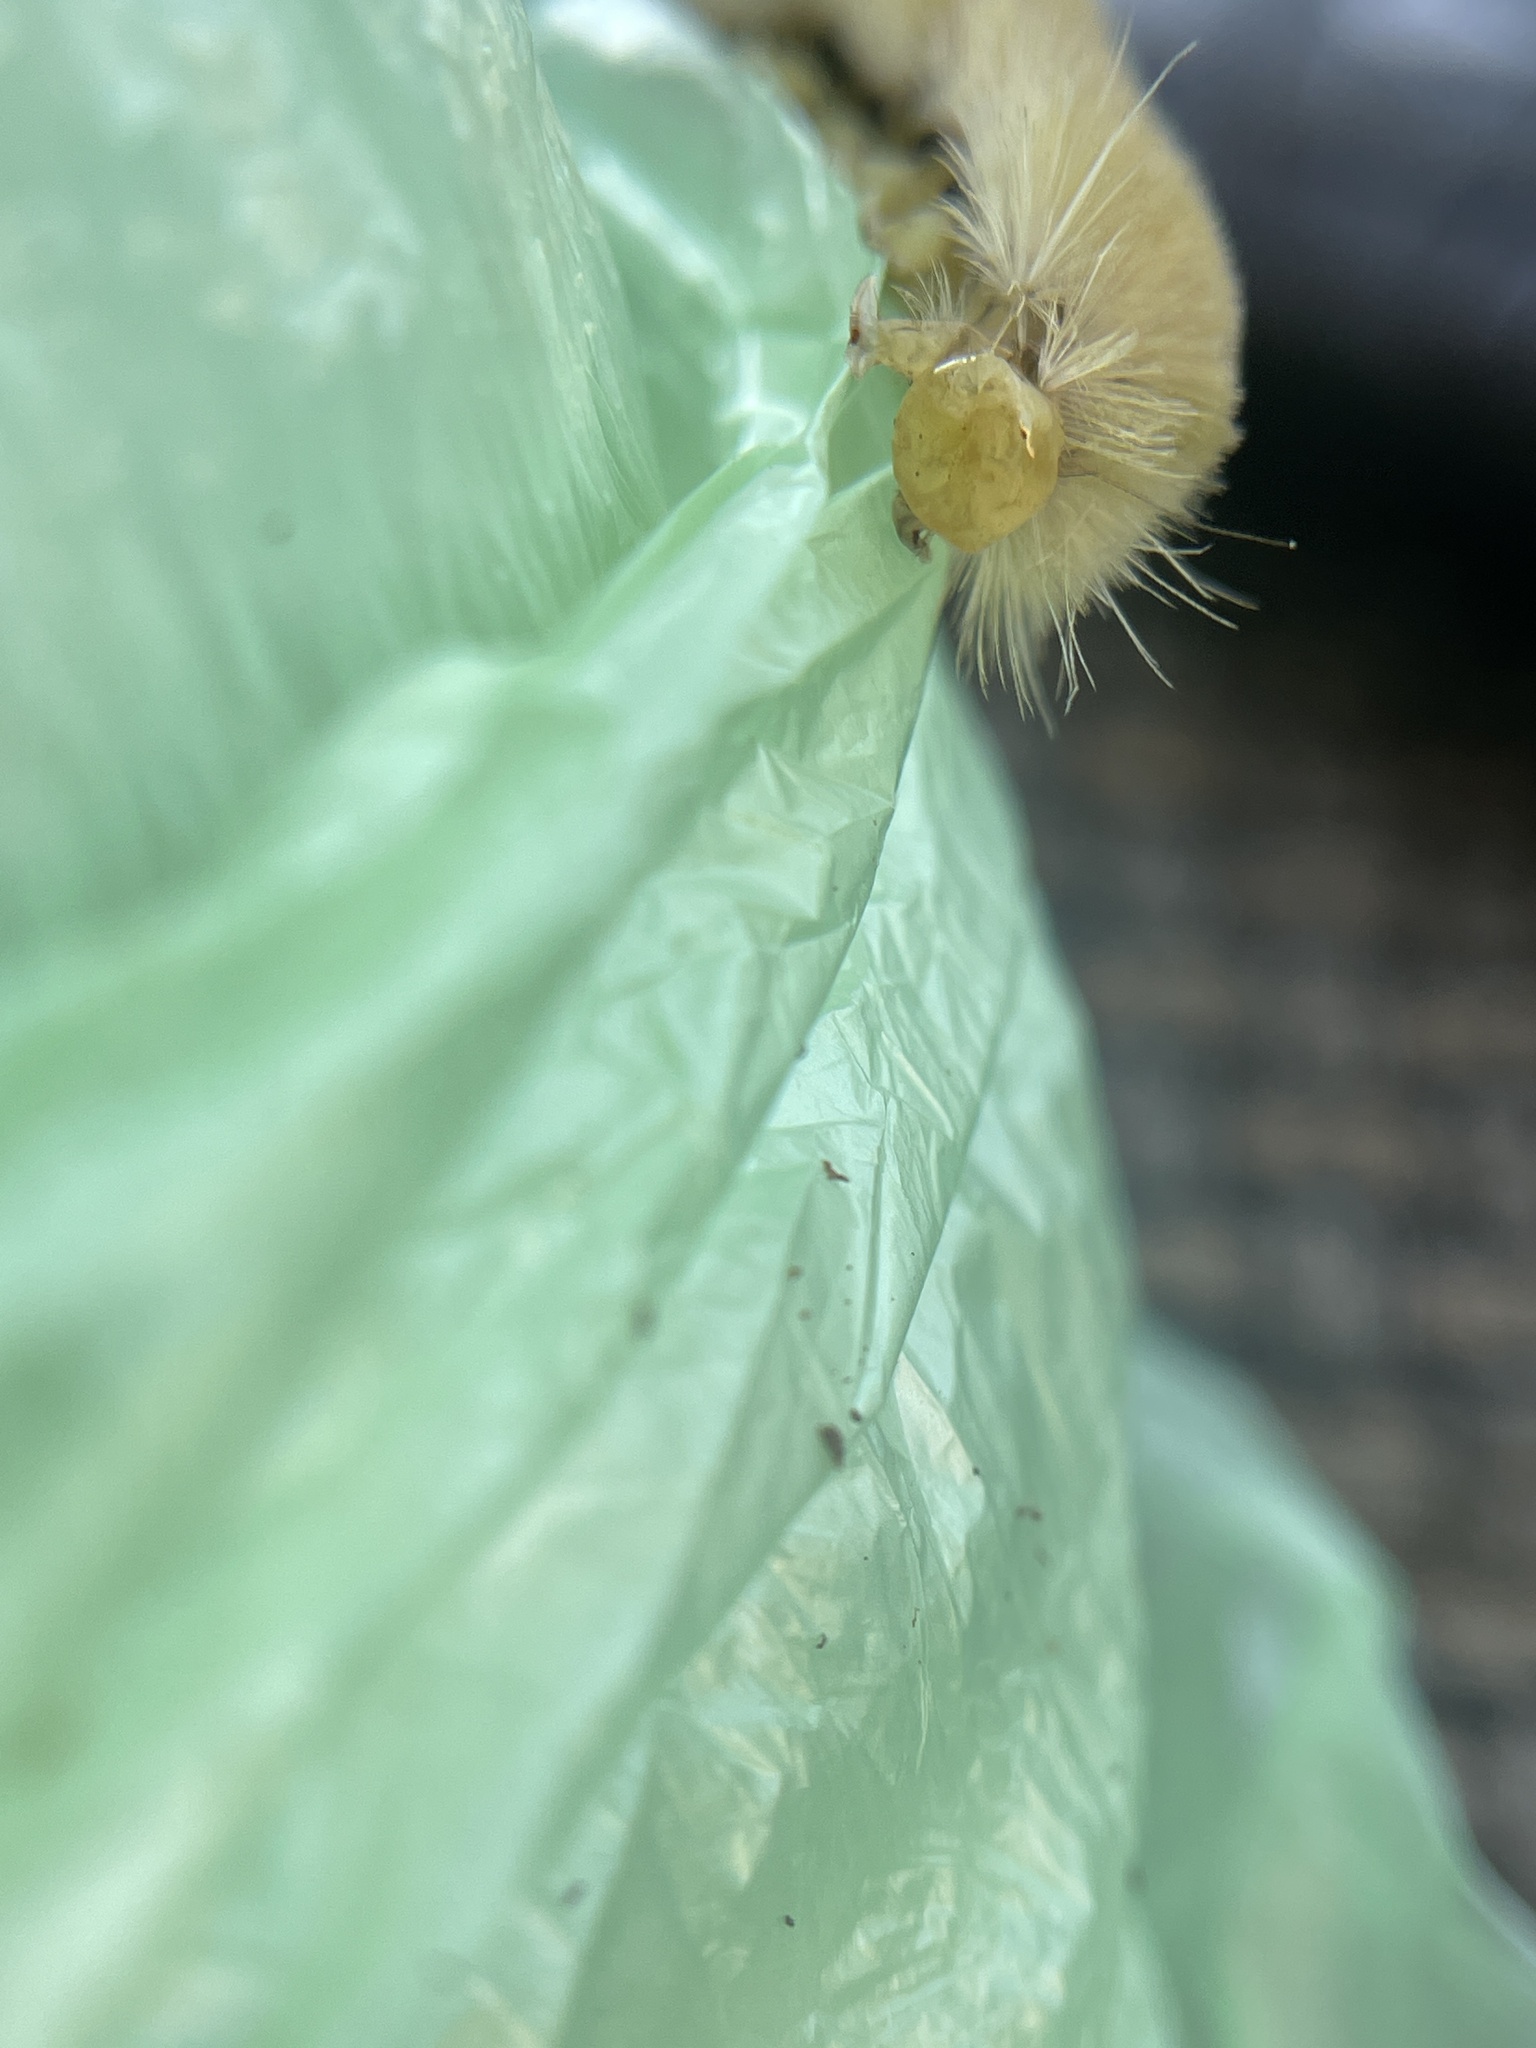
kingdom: Animalia
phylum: Arthropoda
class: Insecta
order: Lepidoptera
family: Erebidae
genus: Halysidota
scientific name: Halysidota harrisii
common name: Sycamore tussock moth
